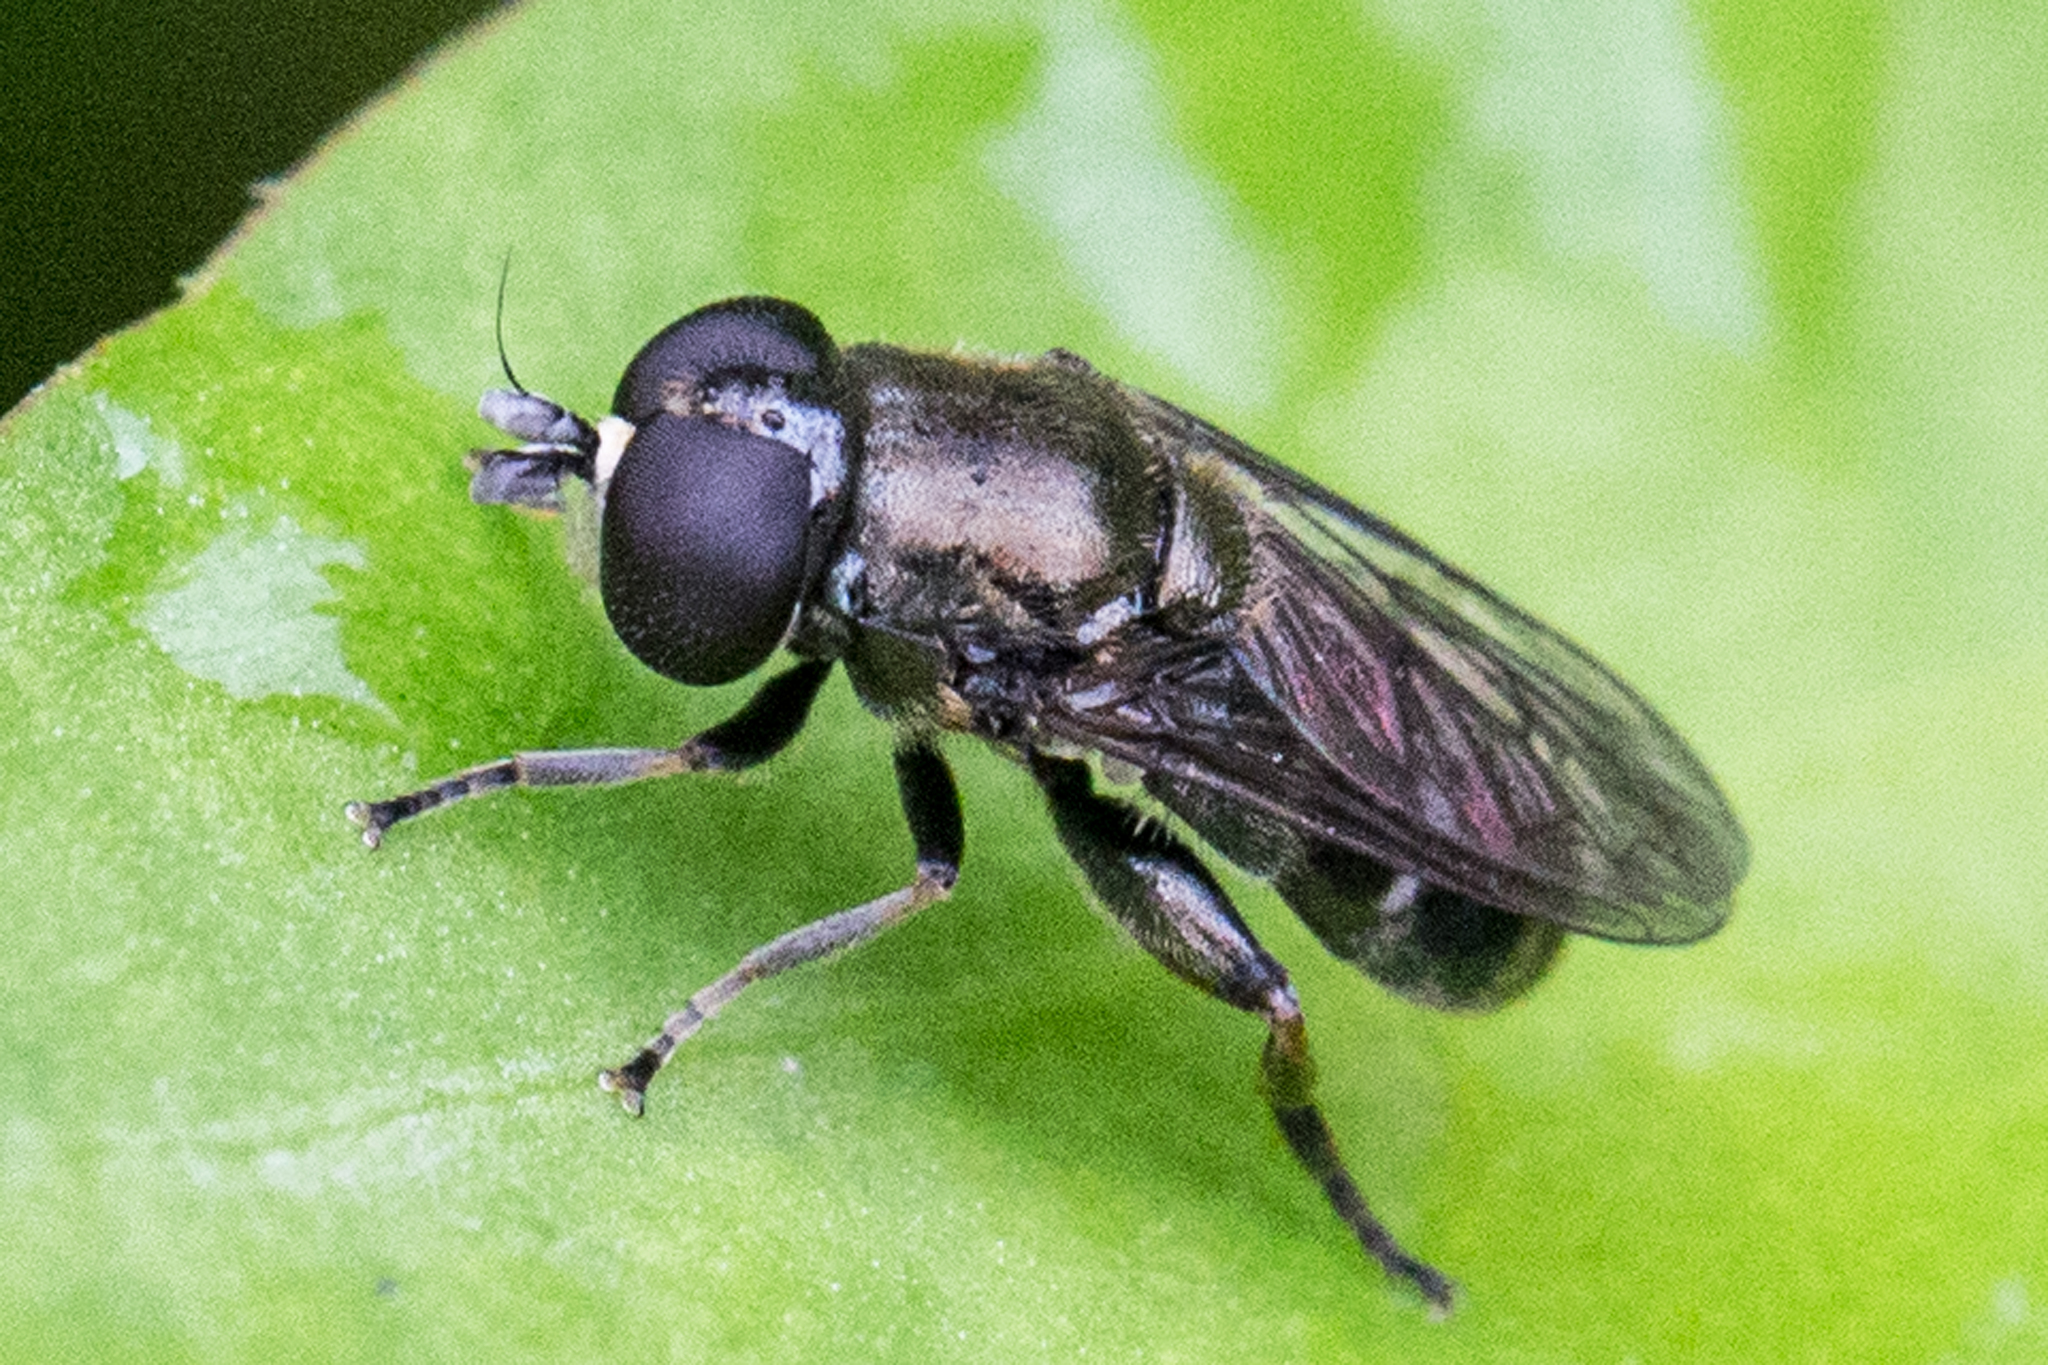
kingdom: Animalia
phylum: Arthropoda
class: Insecta
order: Diptera
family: Syrphidae
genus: Eumerus
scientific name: Eumerus
